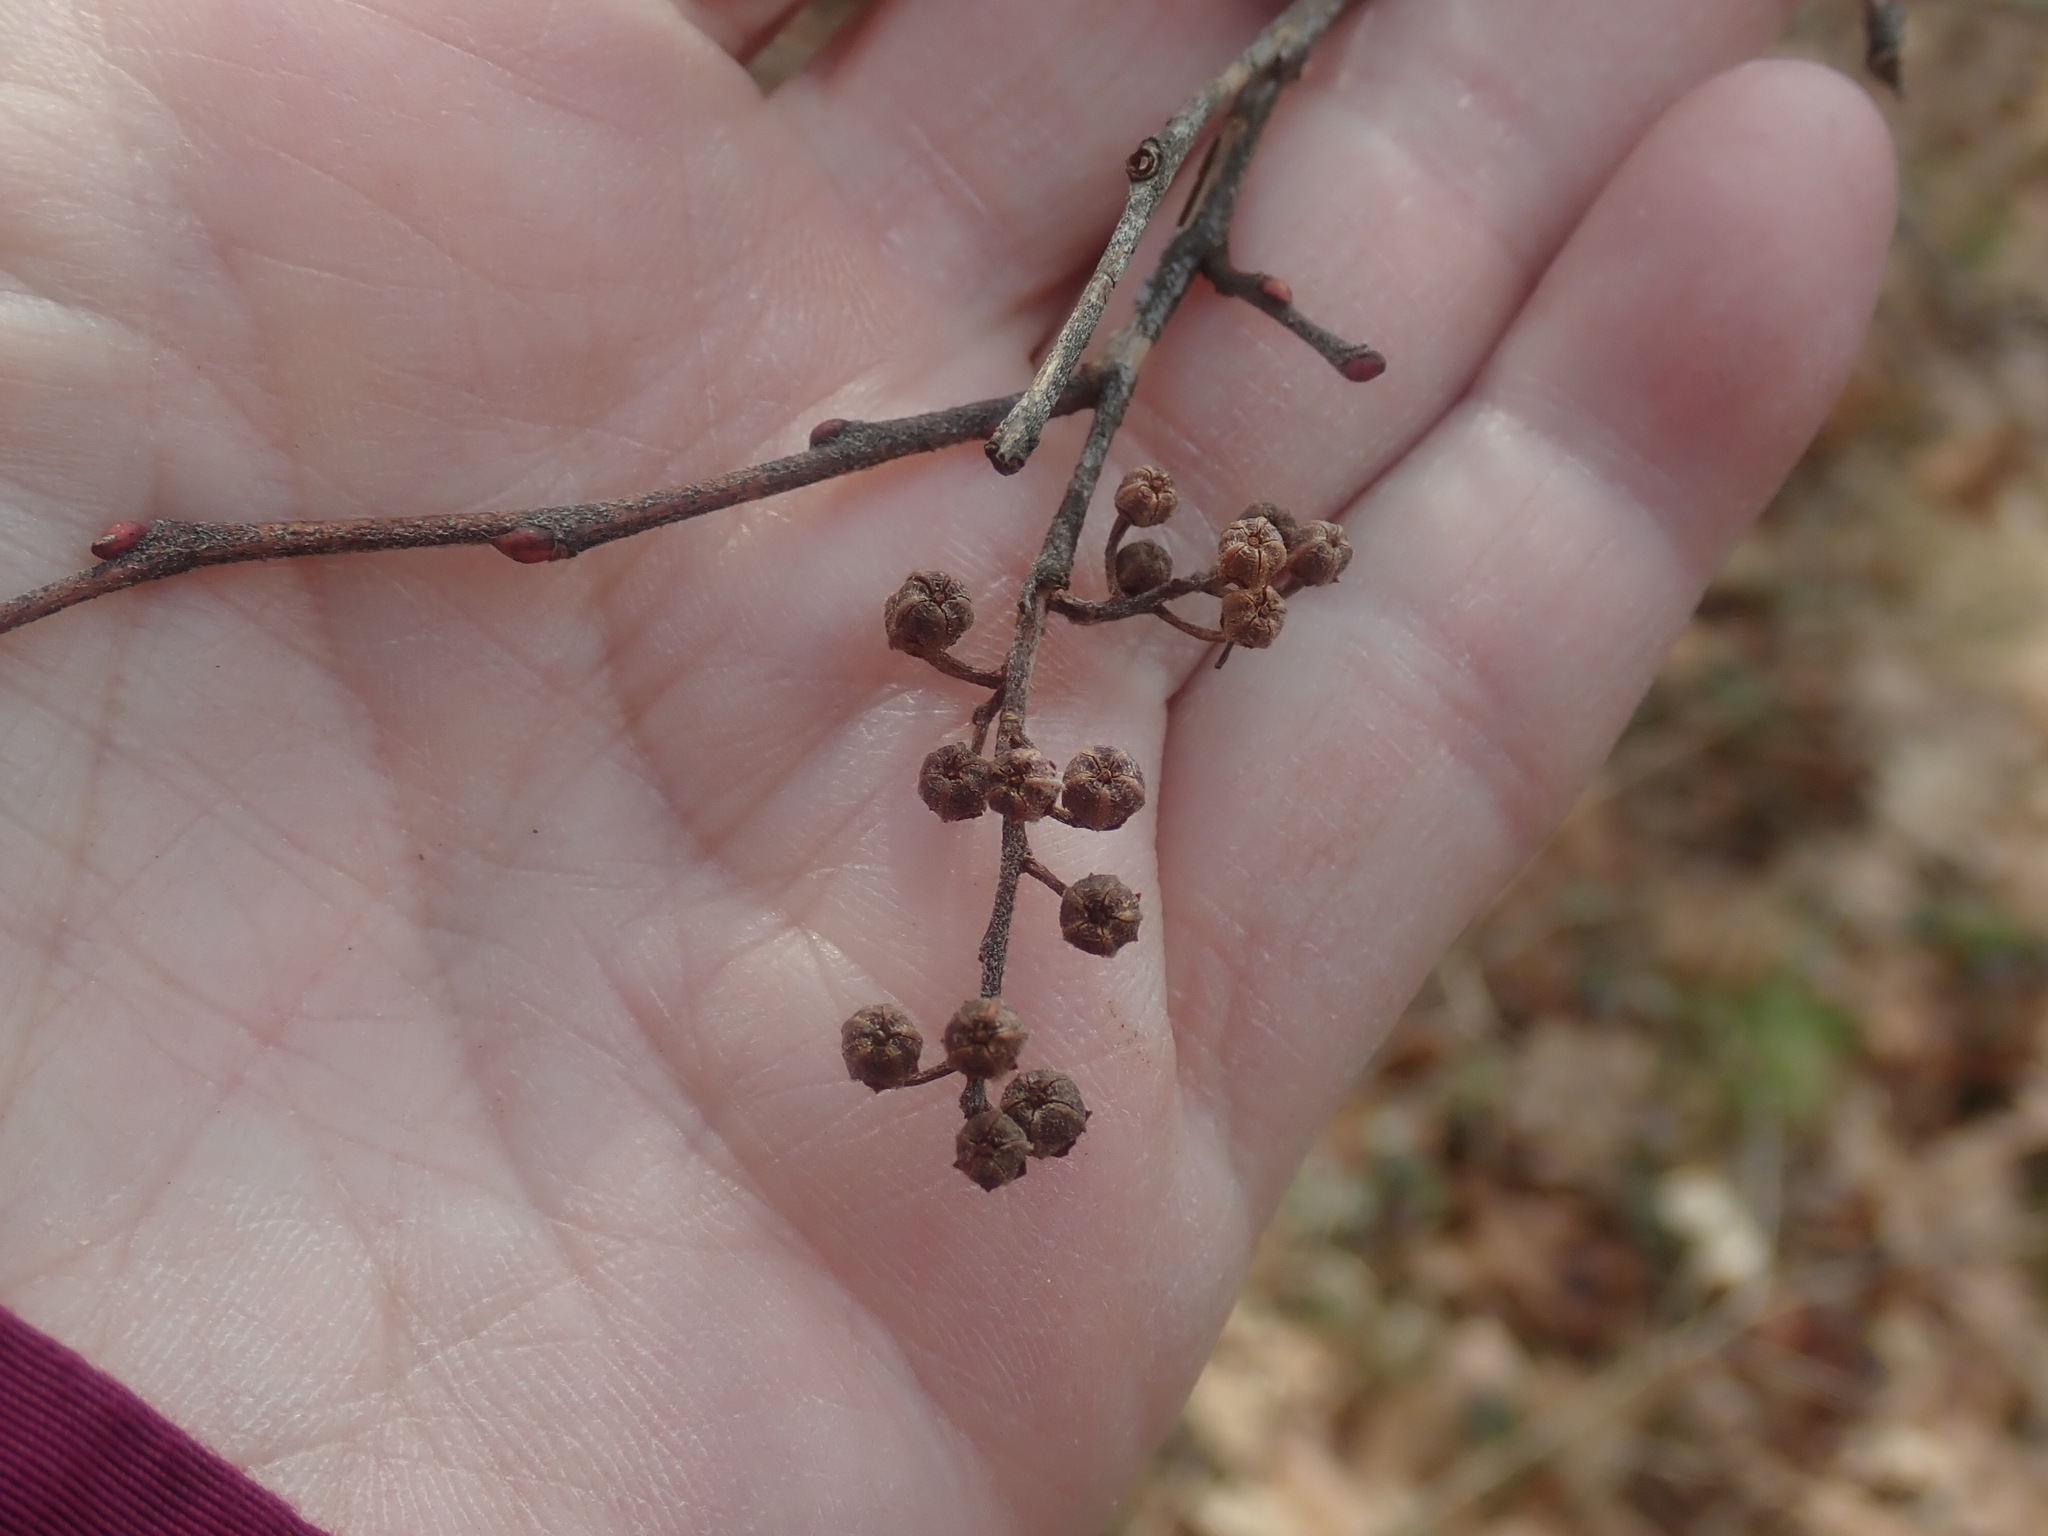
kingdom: Plantae
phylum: Tracheophyta
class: Magnoliopsida
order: Ericales
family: Ericaceae
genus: Lyonia
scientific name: Lyonia ligustrina
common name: Maleberry
